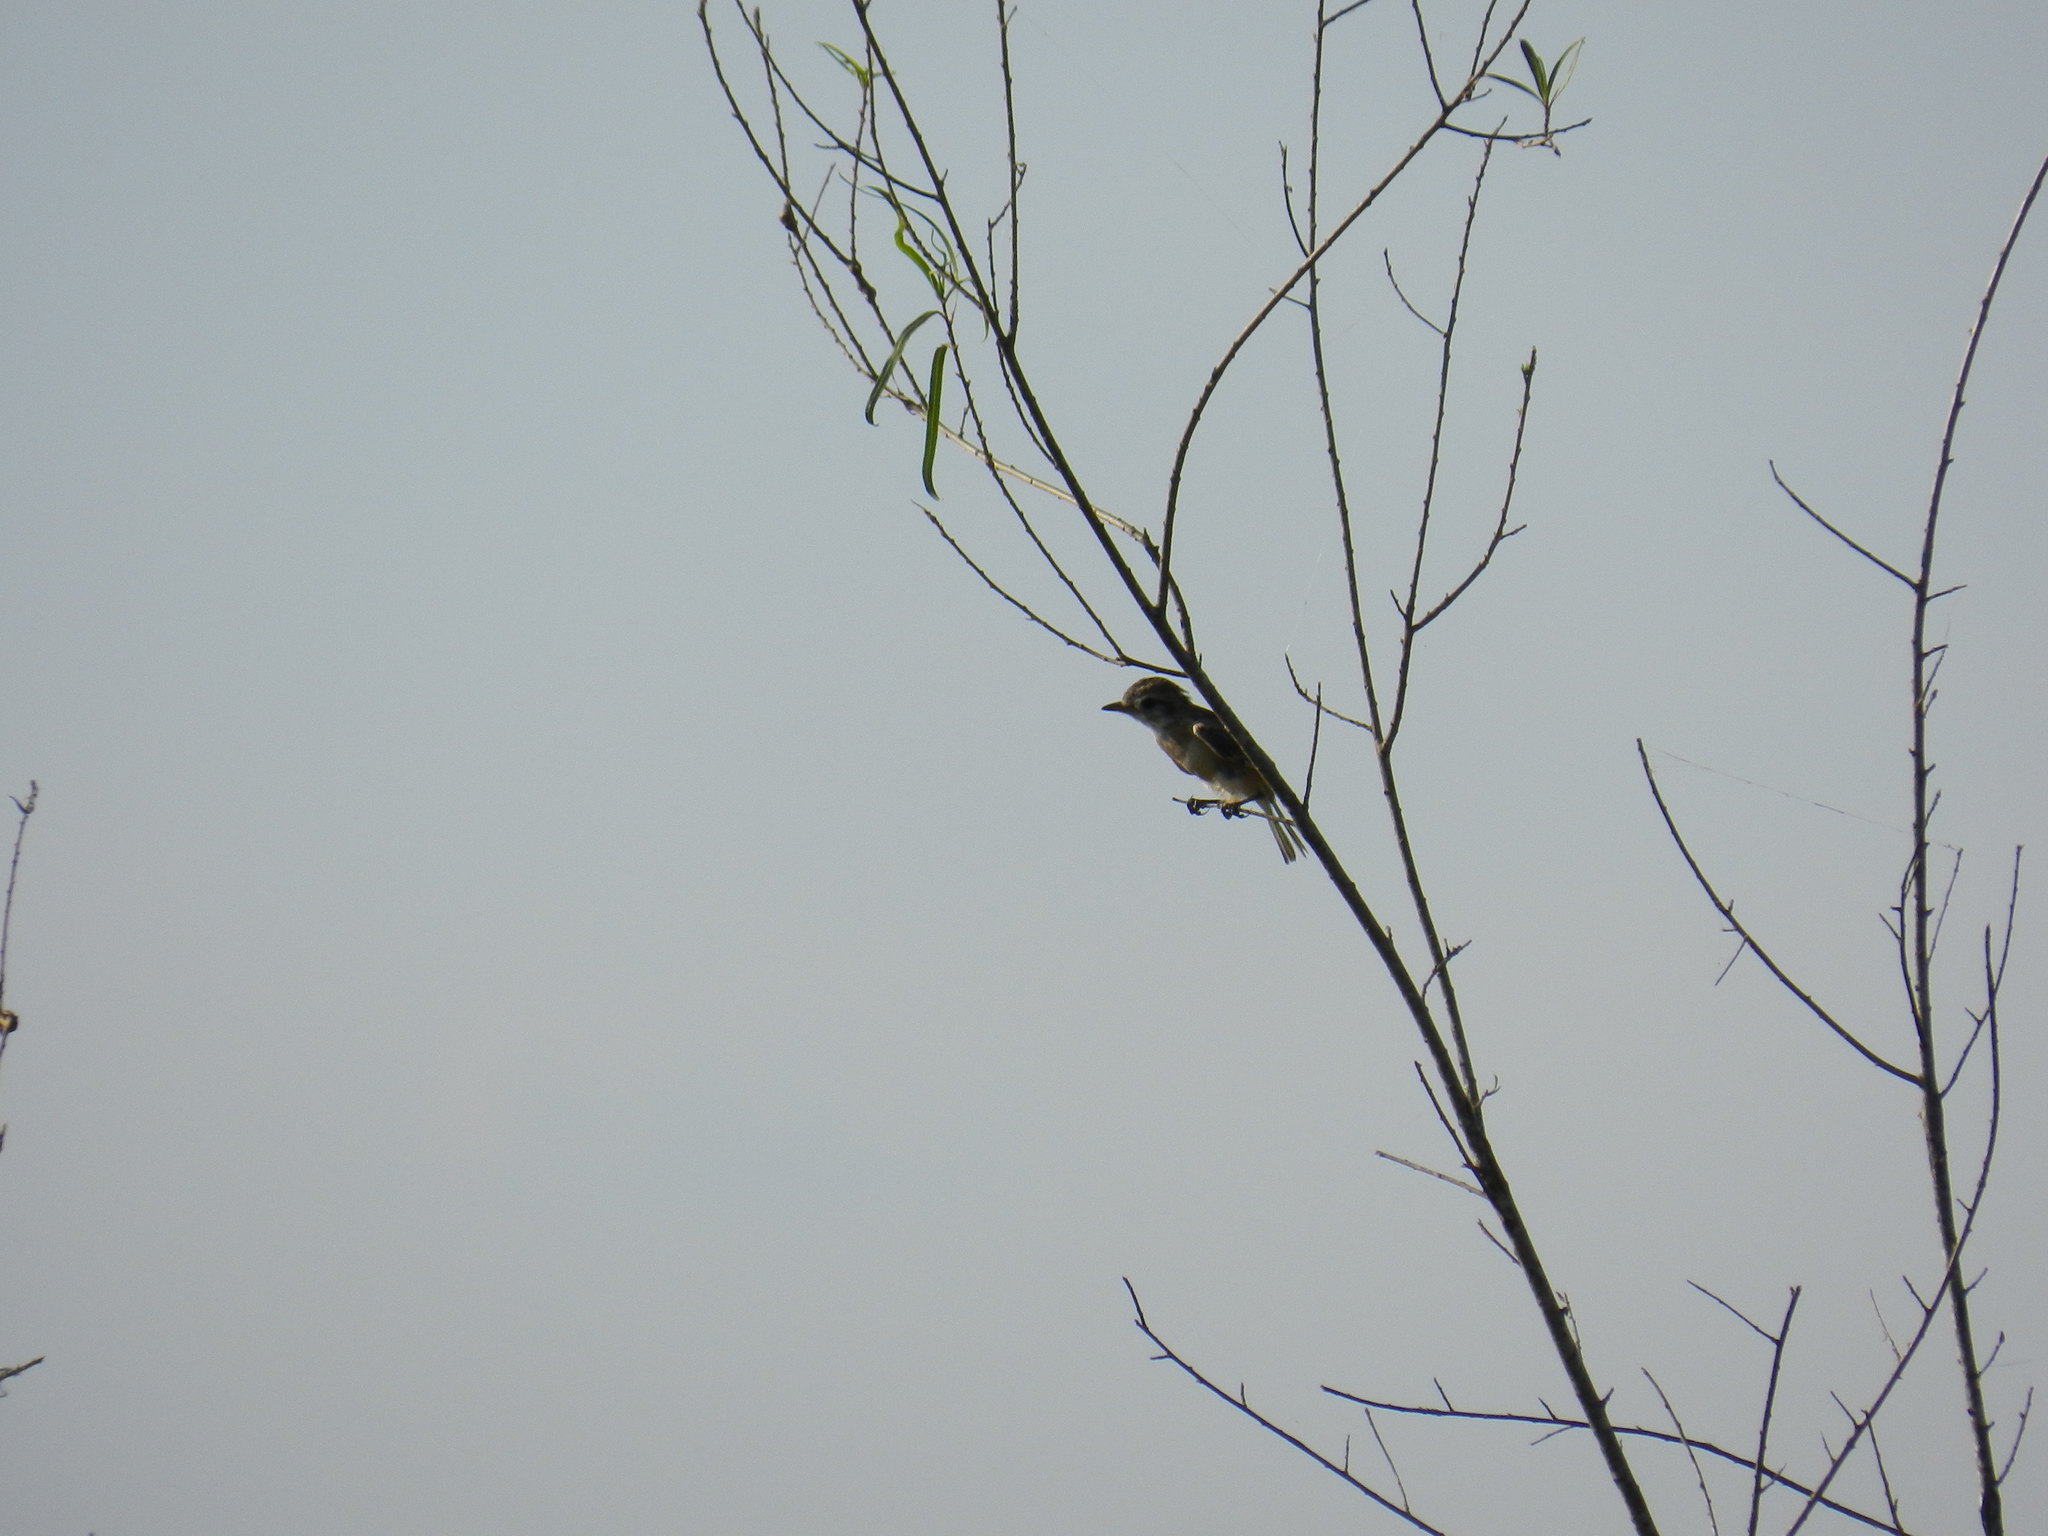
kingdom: Animalia
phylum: Chordata
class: Aves
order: Passeriformes
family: Tyrannidae
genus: Alectrurus
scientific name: Alectrurus risora
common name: Strange-tailed tyrant
